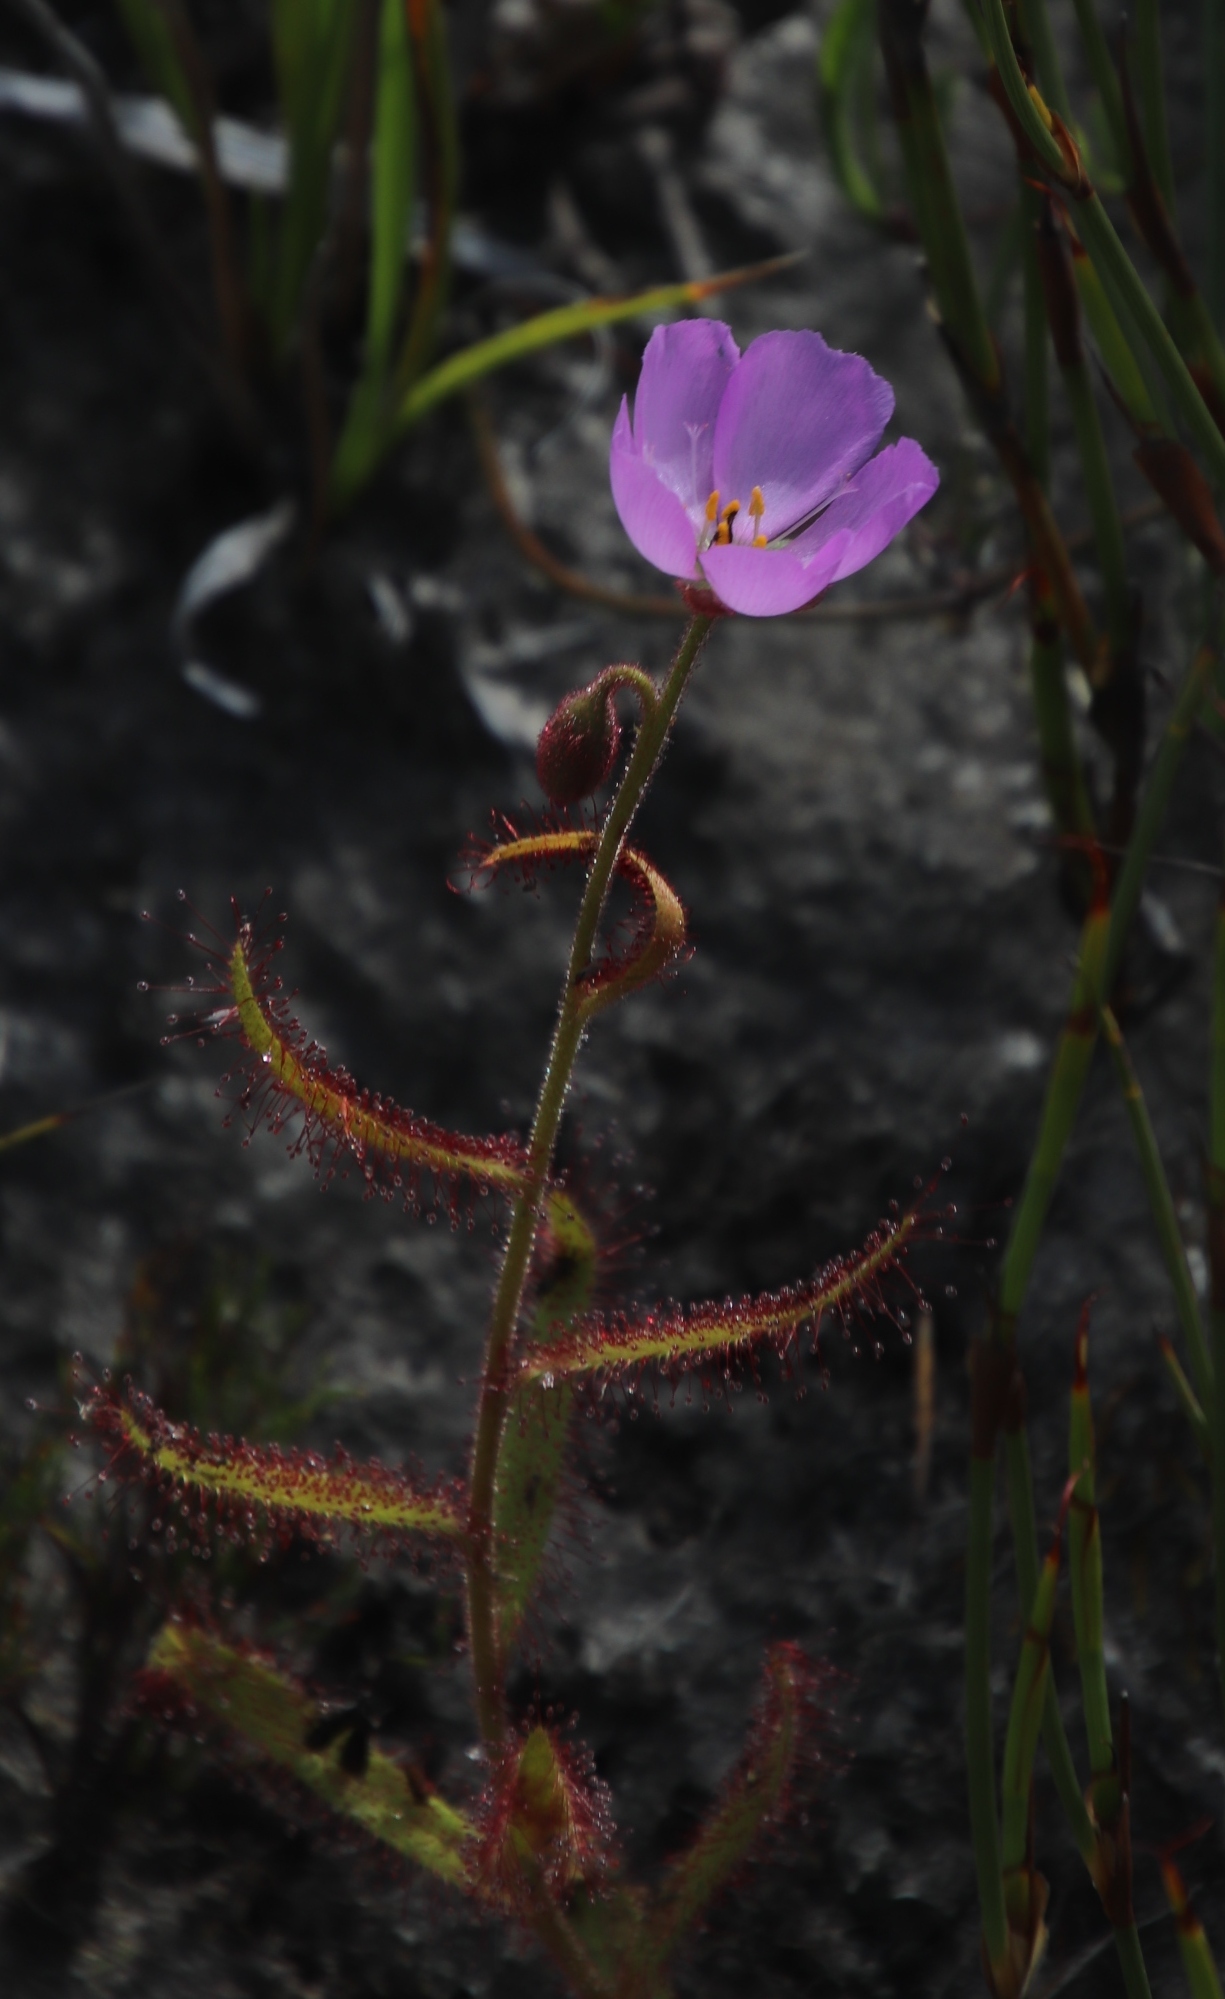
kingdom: Plantae
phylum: Tracheophyta
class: Magnoliopsida
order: Caryophyllales
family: Droseraceae
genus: Drosera
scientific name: Drosera cistiflora
